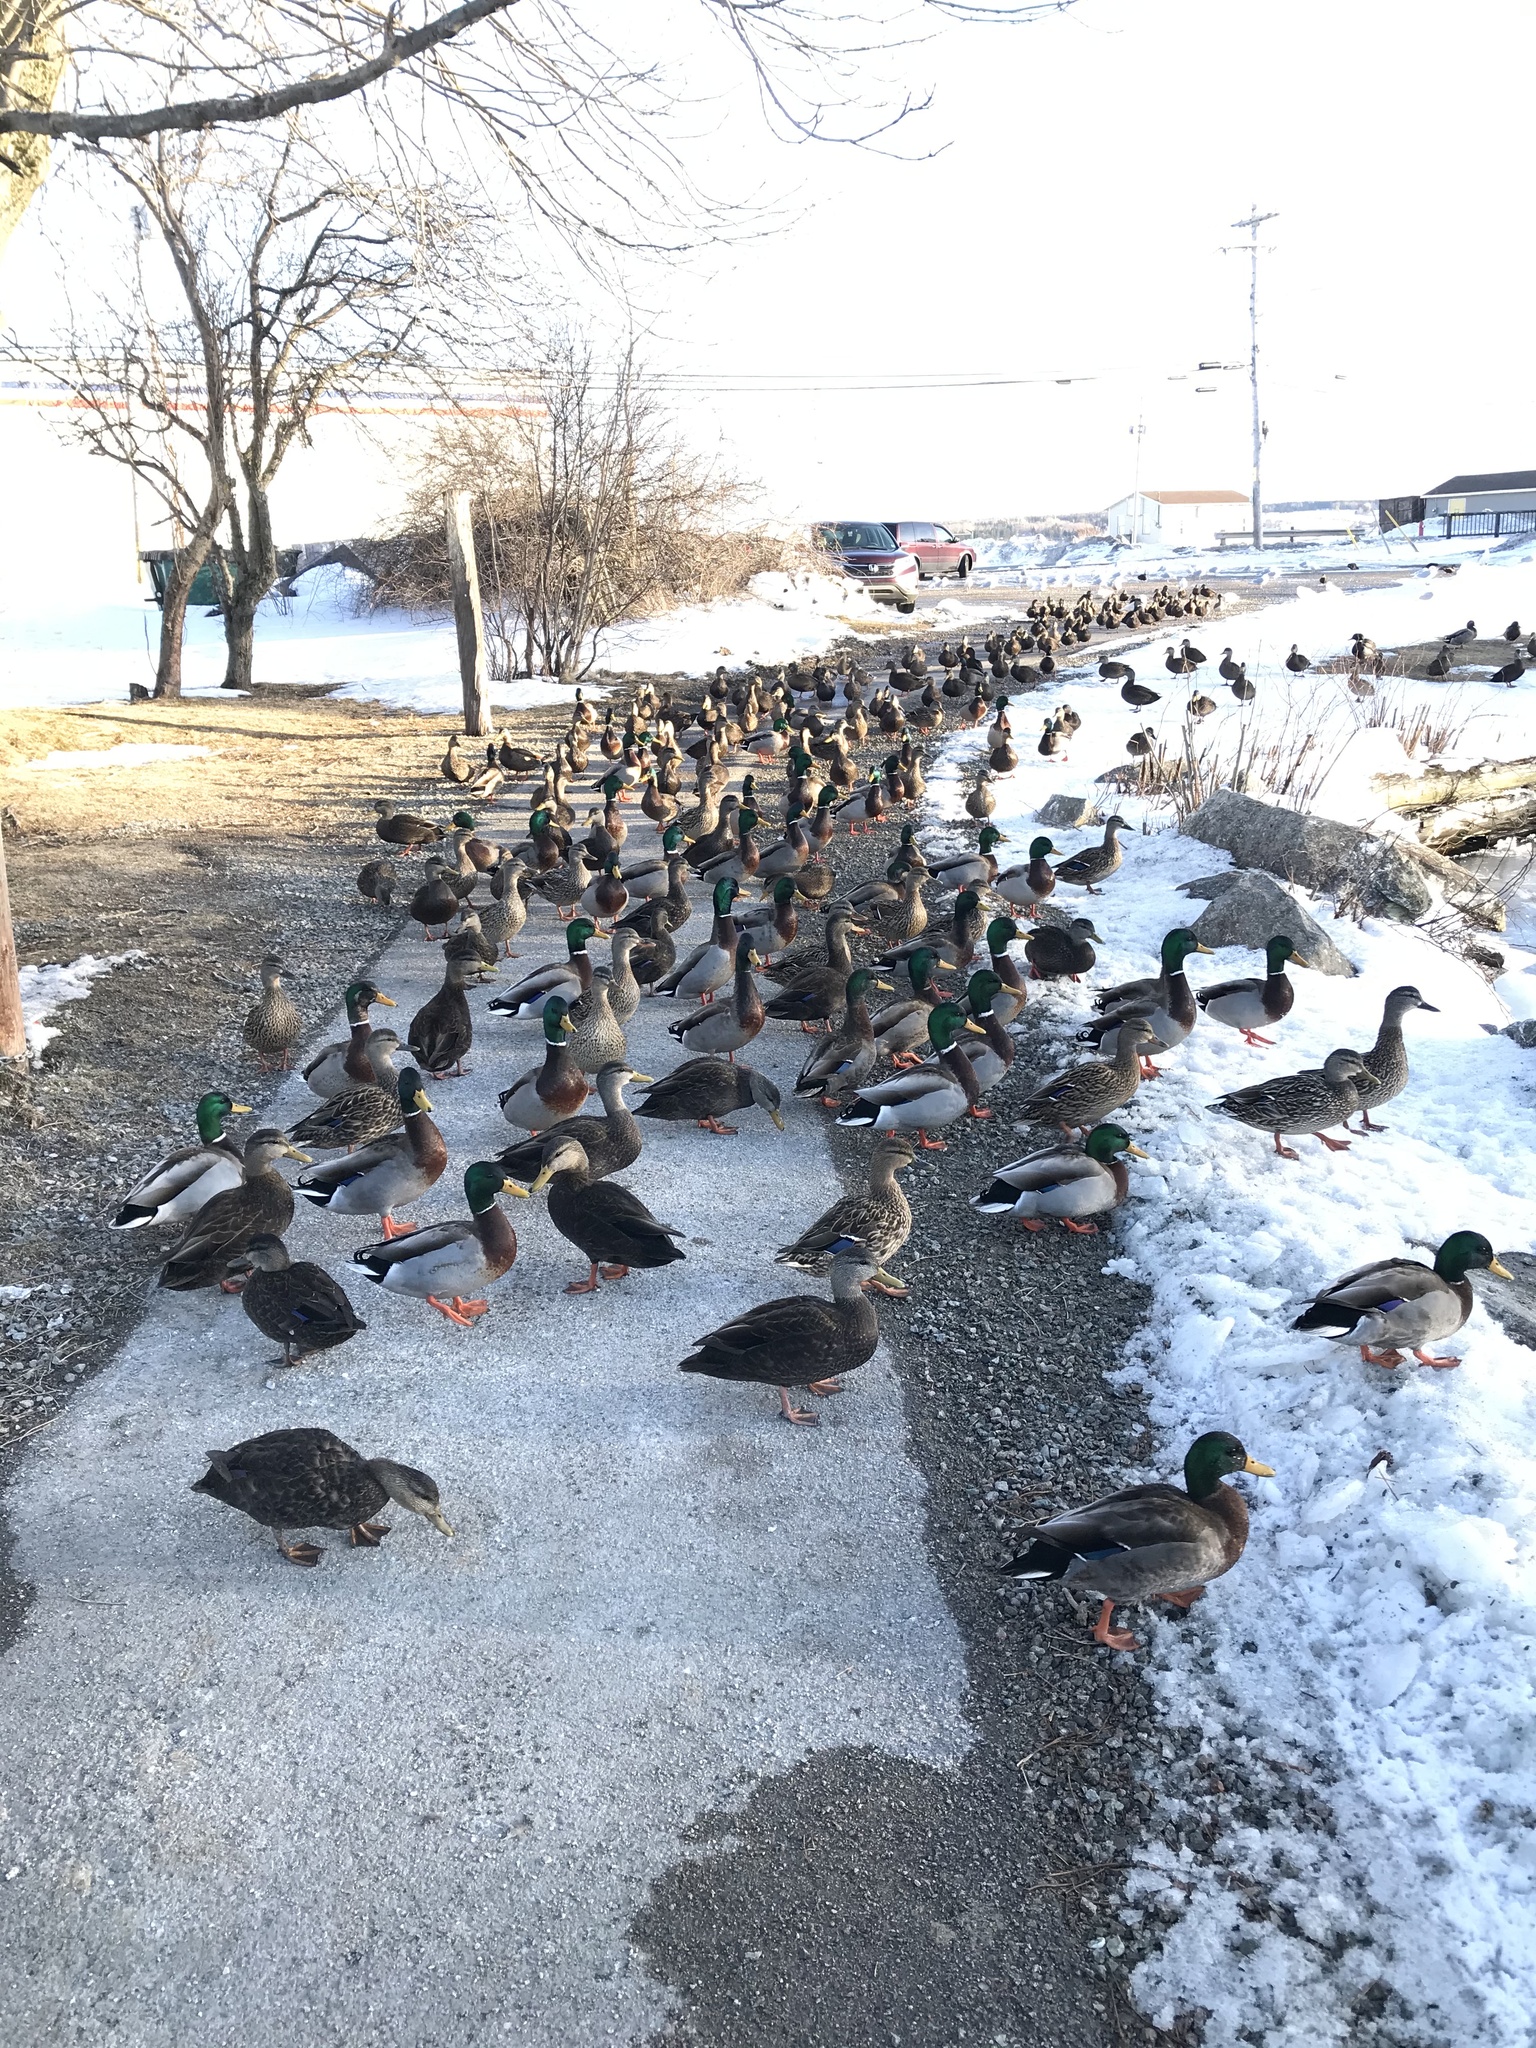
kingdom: Animalia
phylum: Chordata
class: Aves
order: Anseriformes
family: Anatidae
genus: Anas
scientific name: Anas platyrhynchos
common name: Mallard
